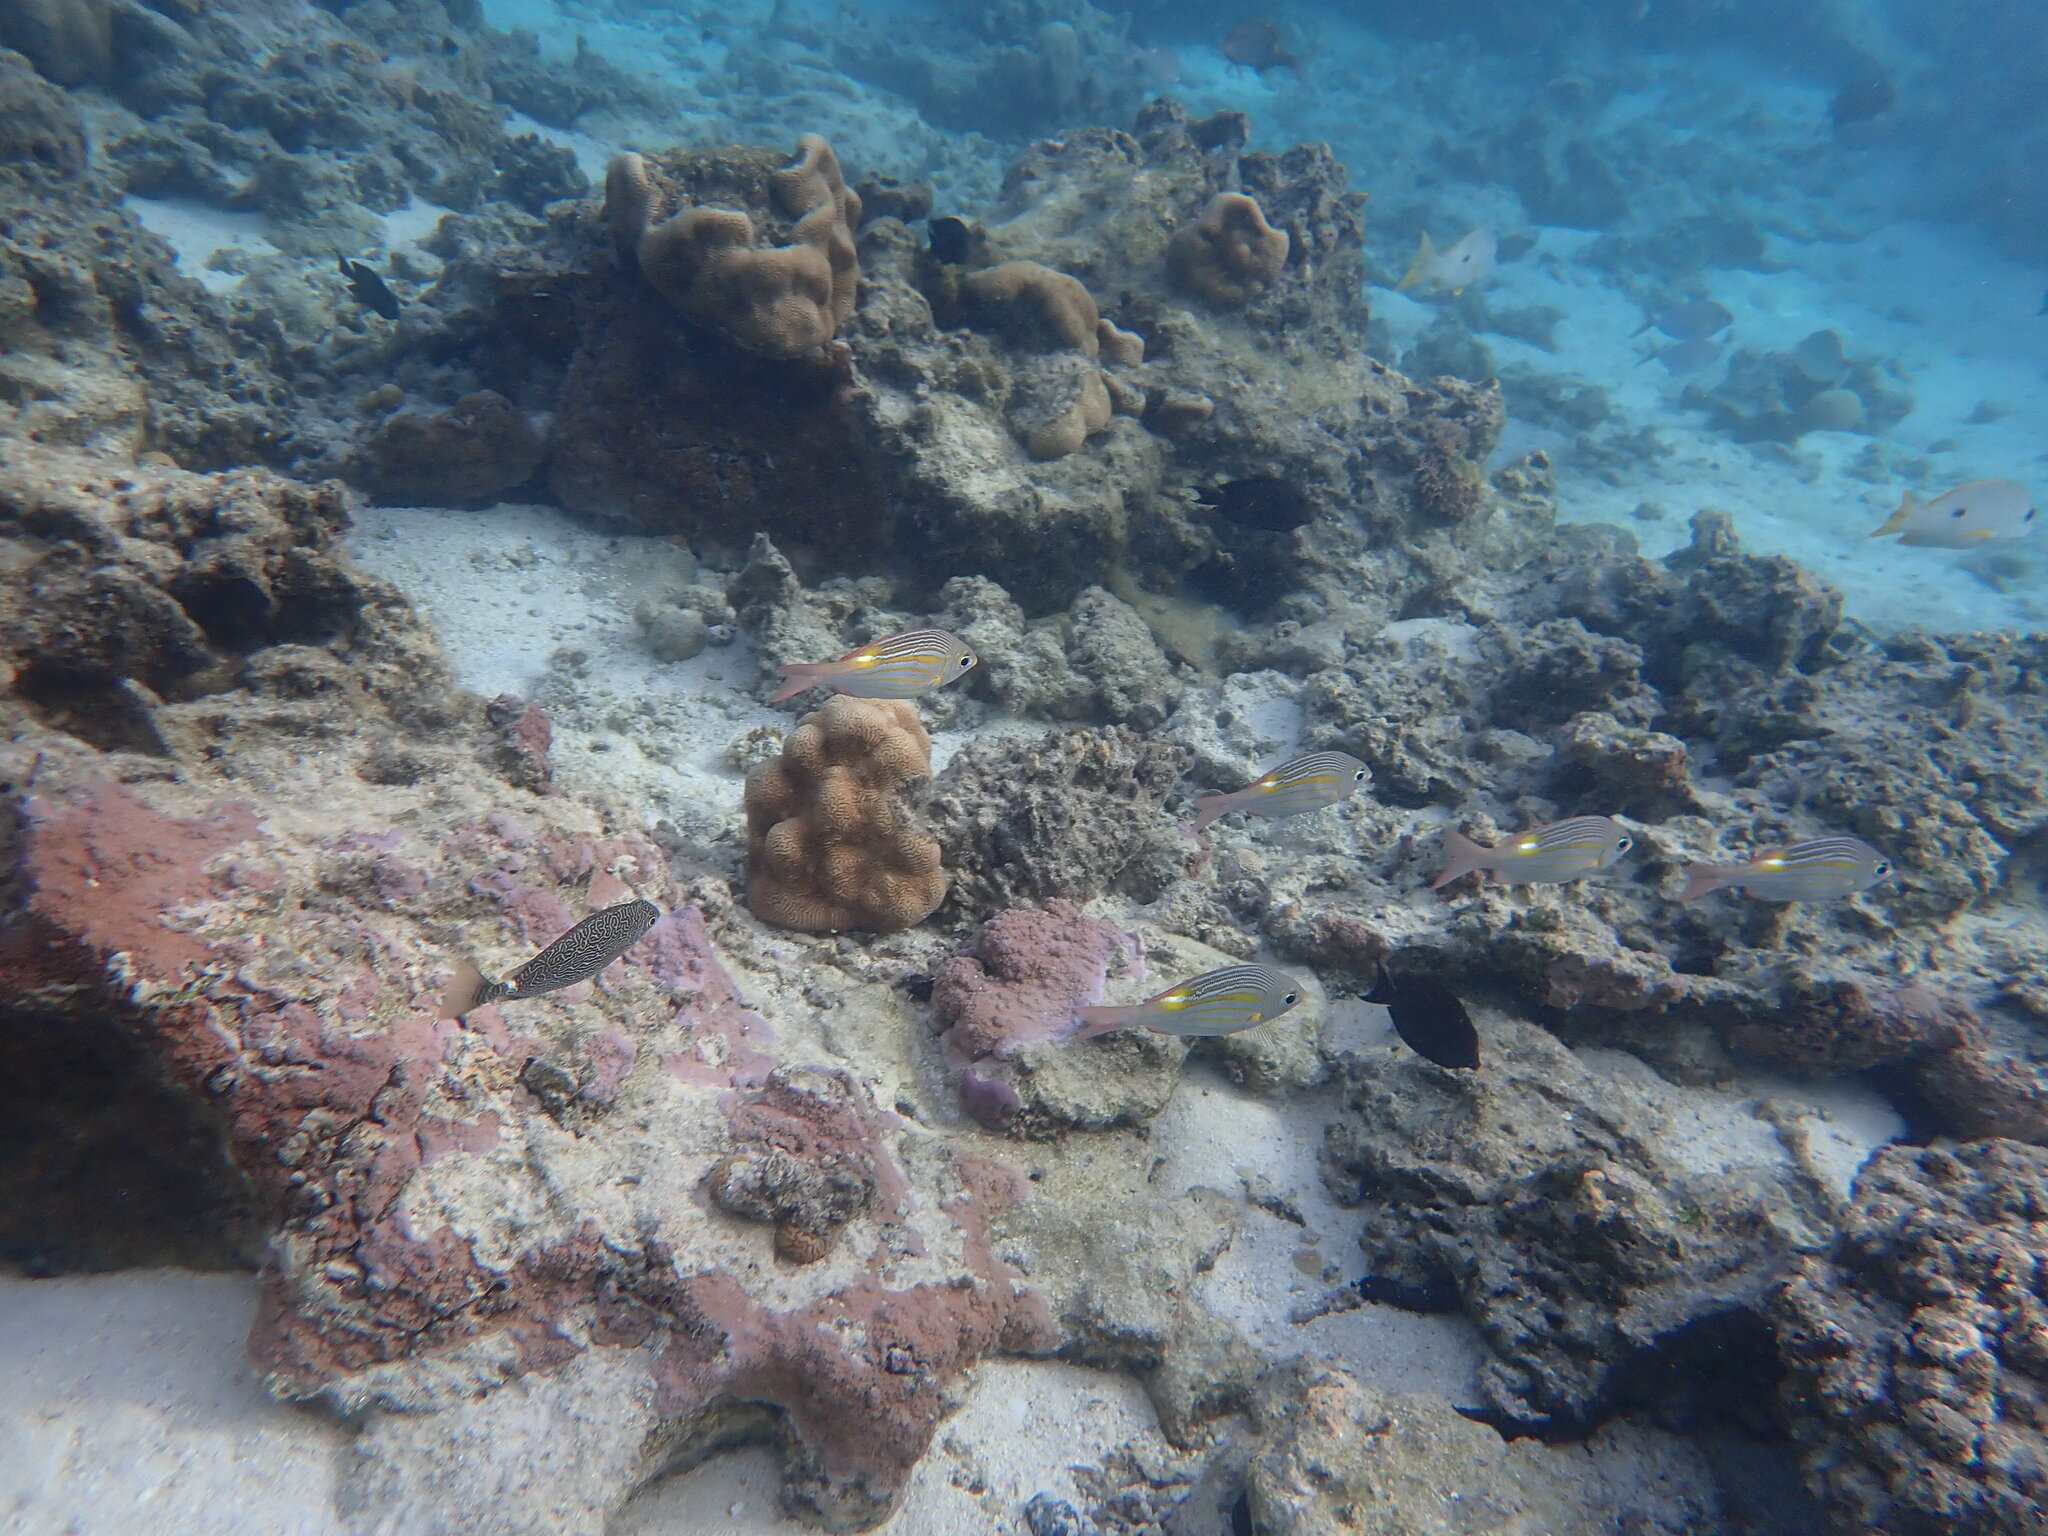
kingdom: Animalia
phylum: Chordata
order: Perciformes
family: Lethrinidae
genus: Gnathodentex
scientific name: Gnathodentex aureolineatus
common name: Gold-lined sea bream
